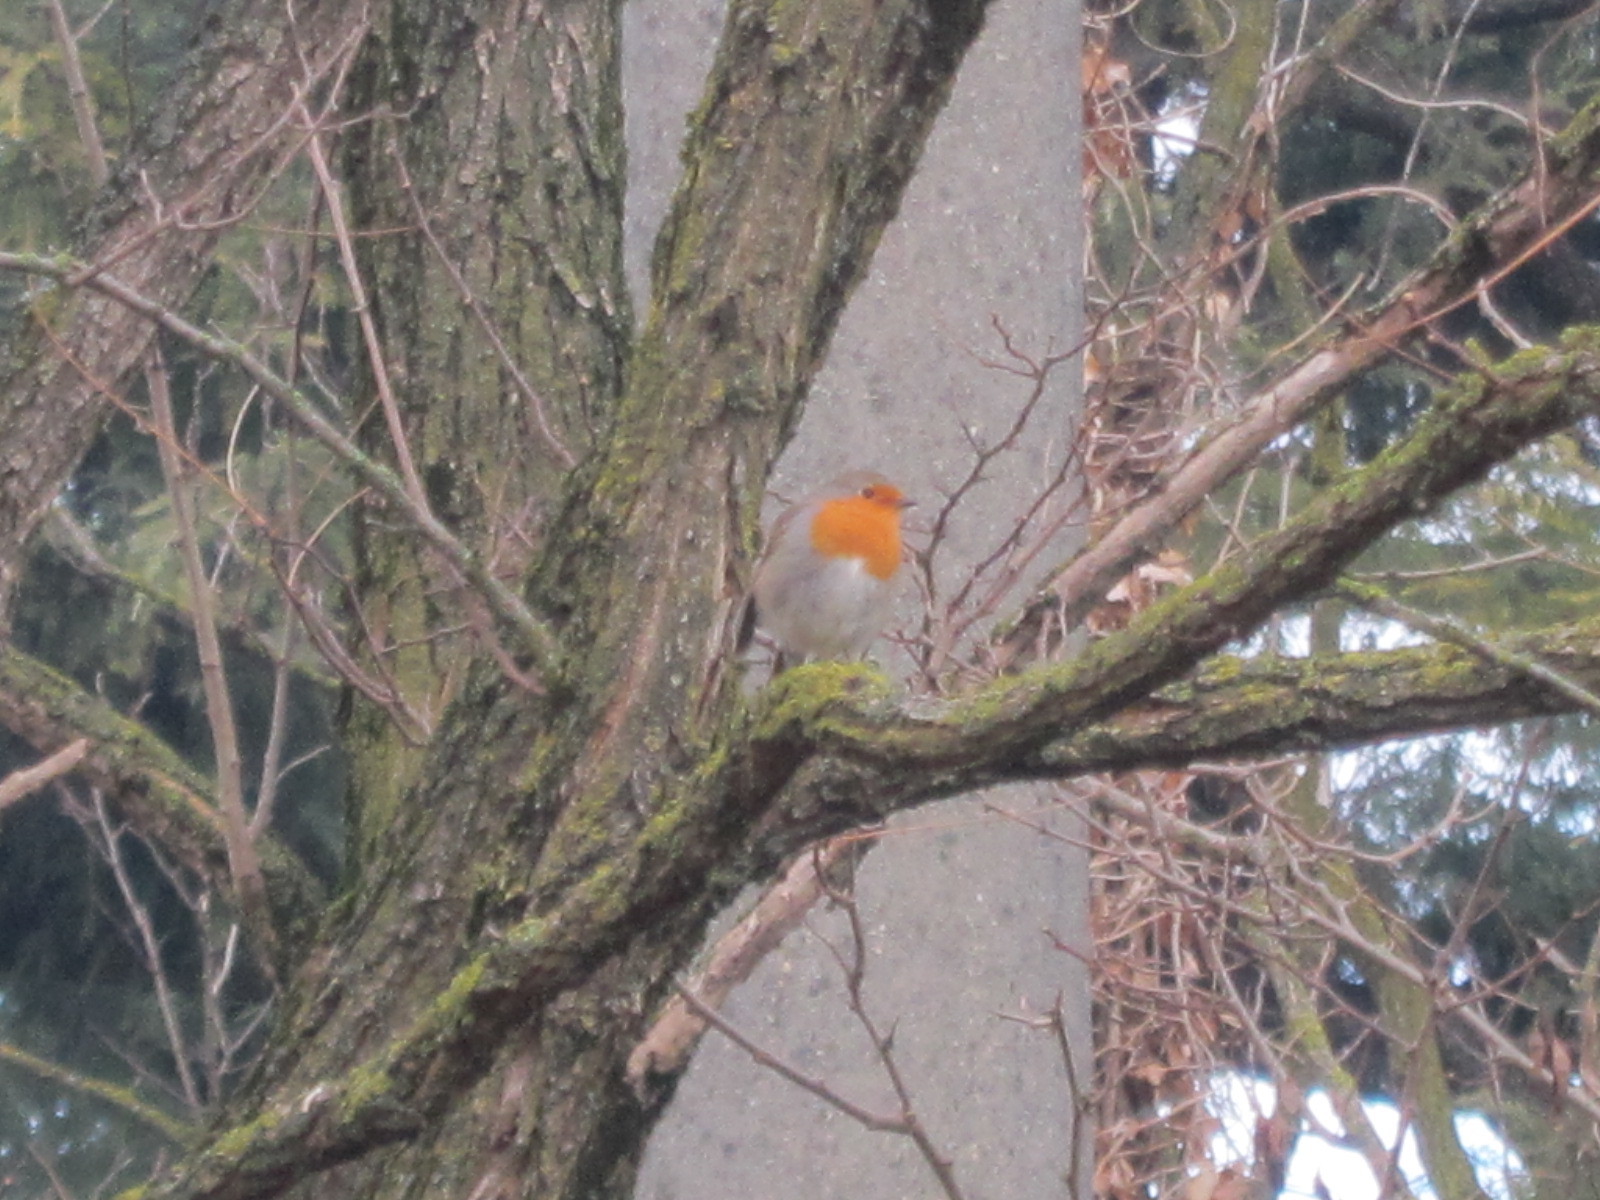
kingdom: Animalia
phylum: Chordata
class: Aves
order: Passeriformes
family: Muscicapidae
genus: Erithacus
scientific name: Erithacus rubecula
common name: European robin
